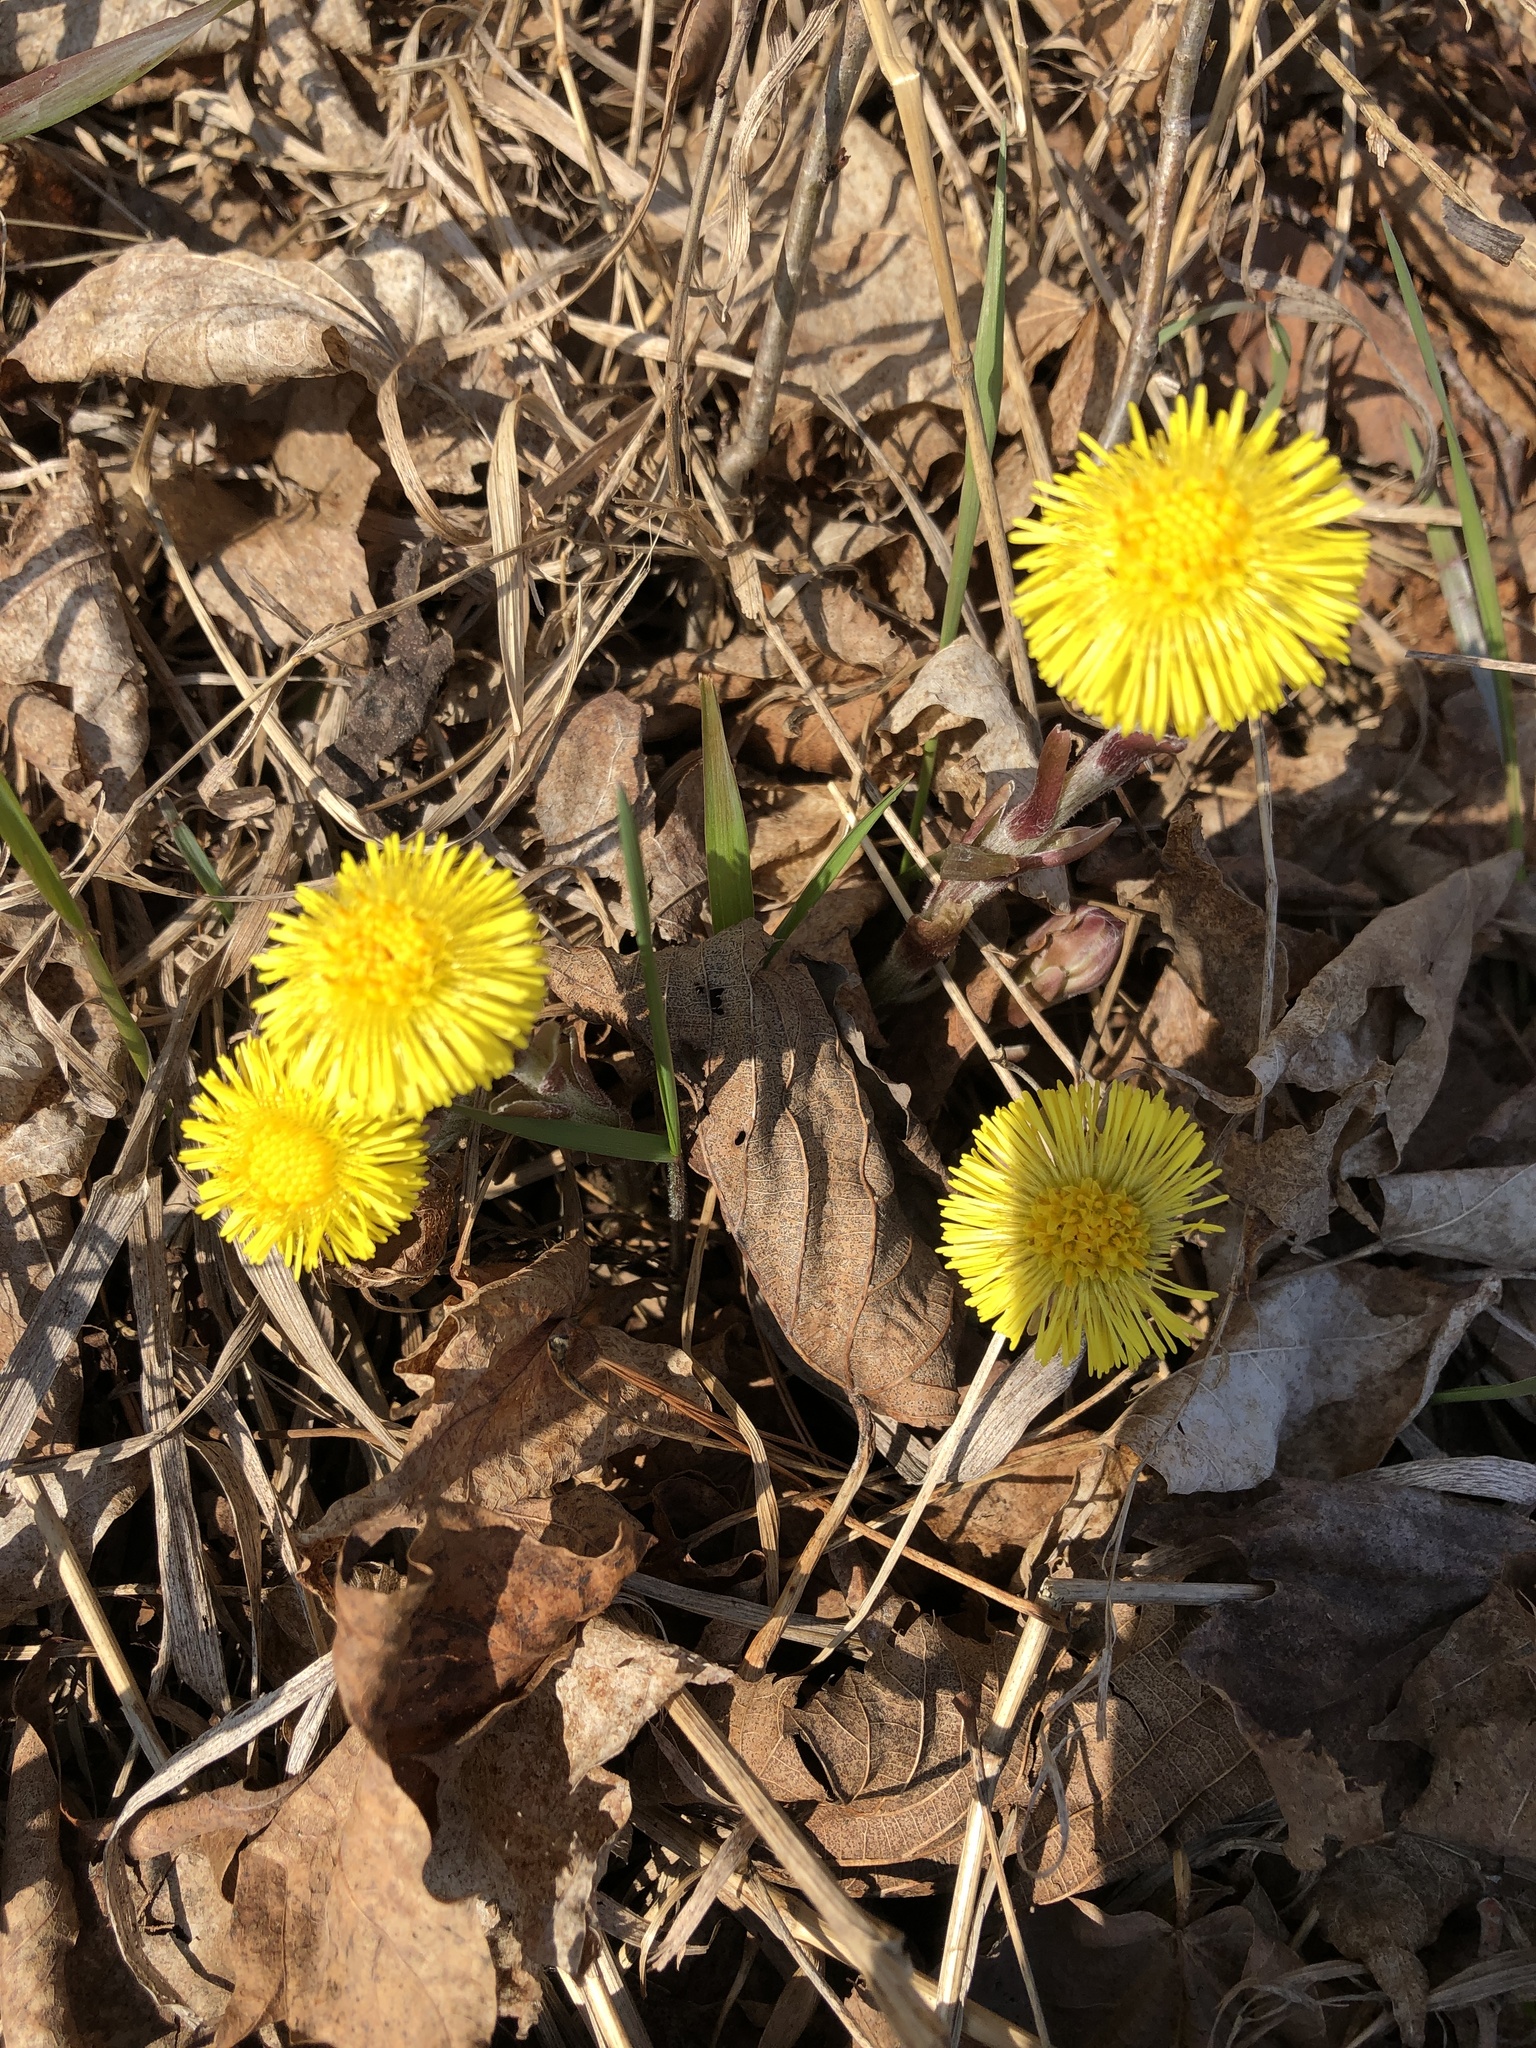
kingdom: Plantae
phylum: Tracheophyta
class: Magnoliopsida
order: Asterales
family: Asteraceae
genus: Tussilago
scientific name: Tussilago farfara
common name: Coltsfoot
